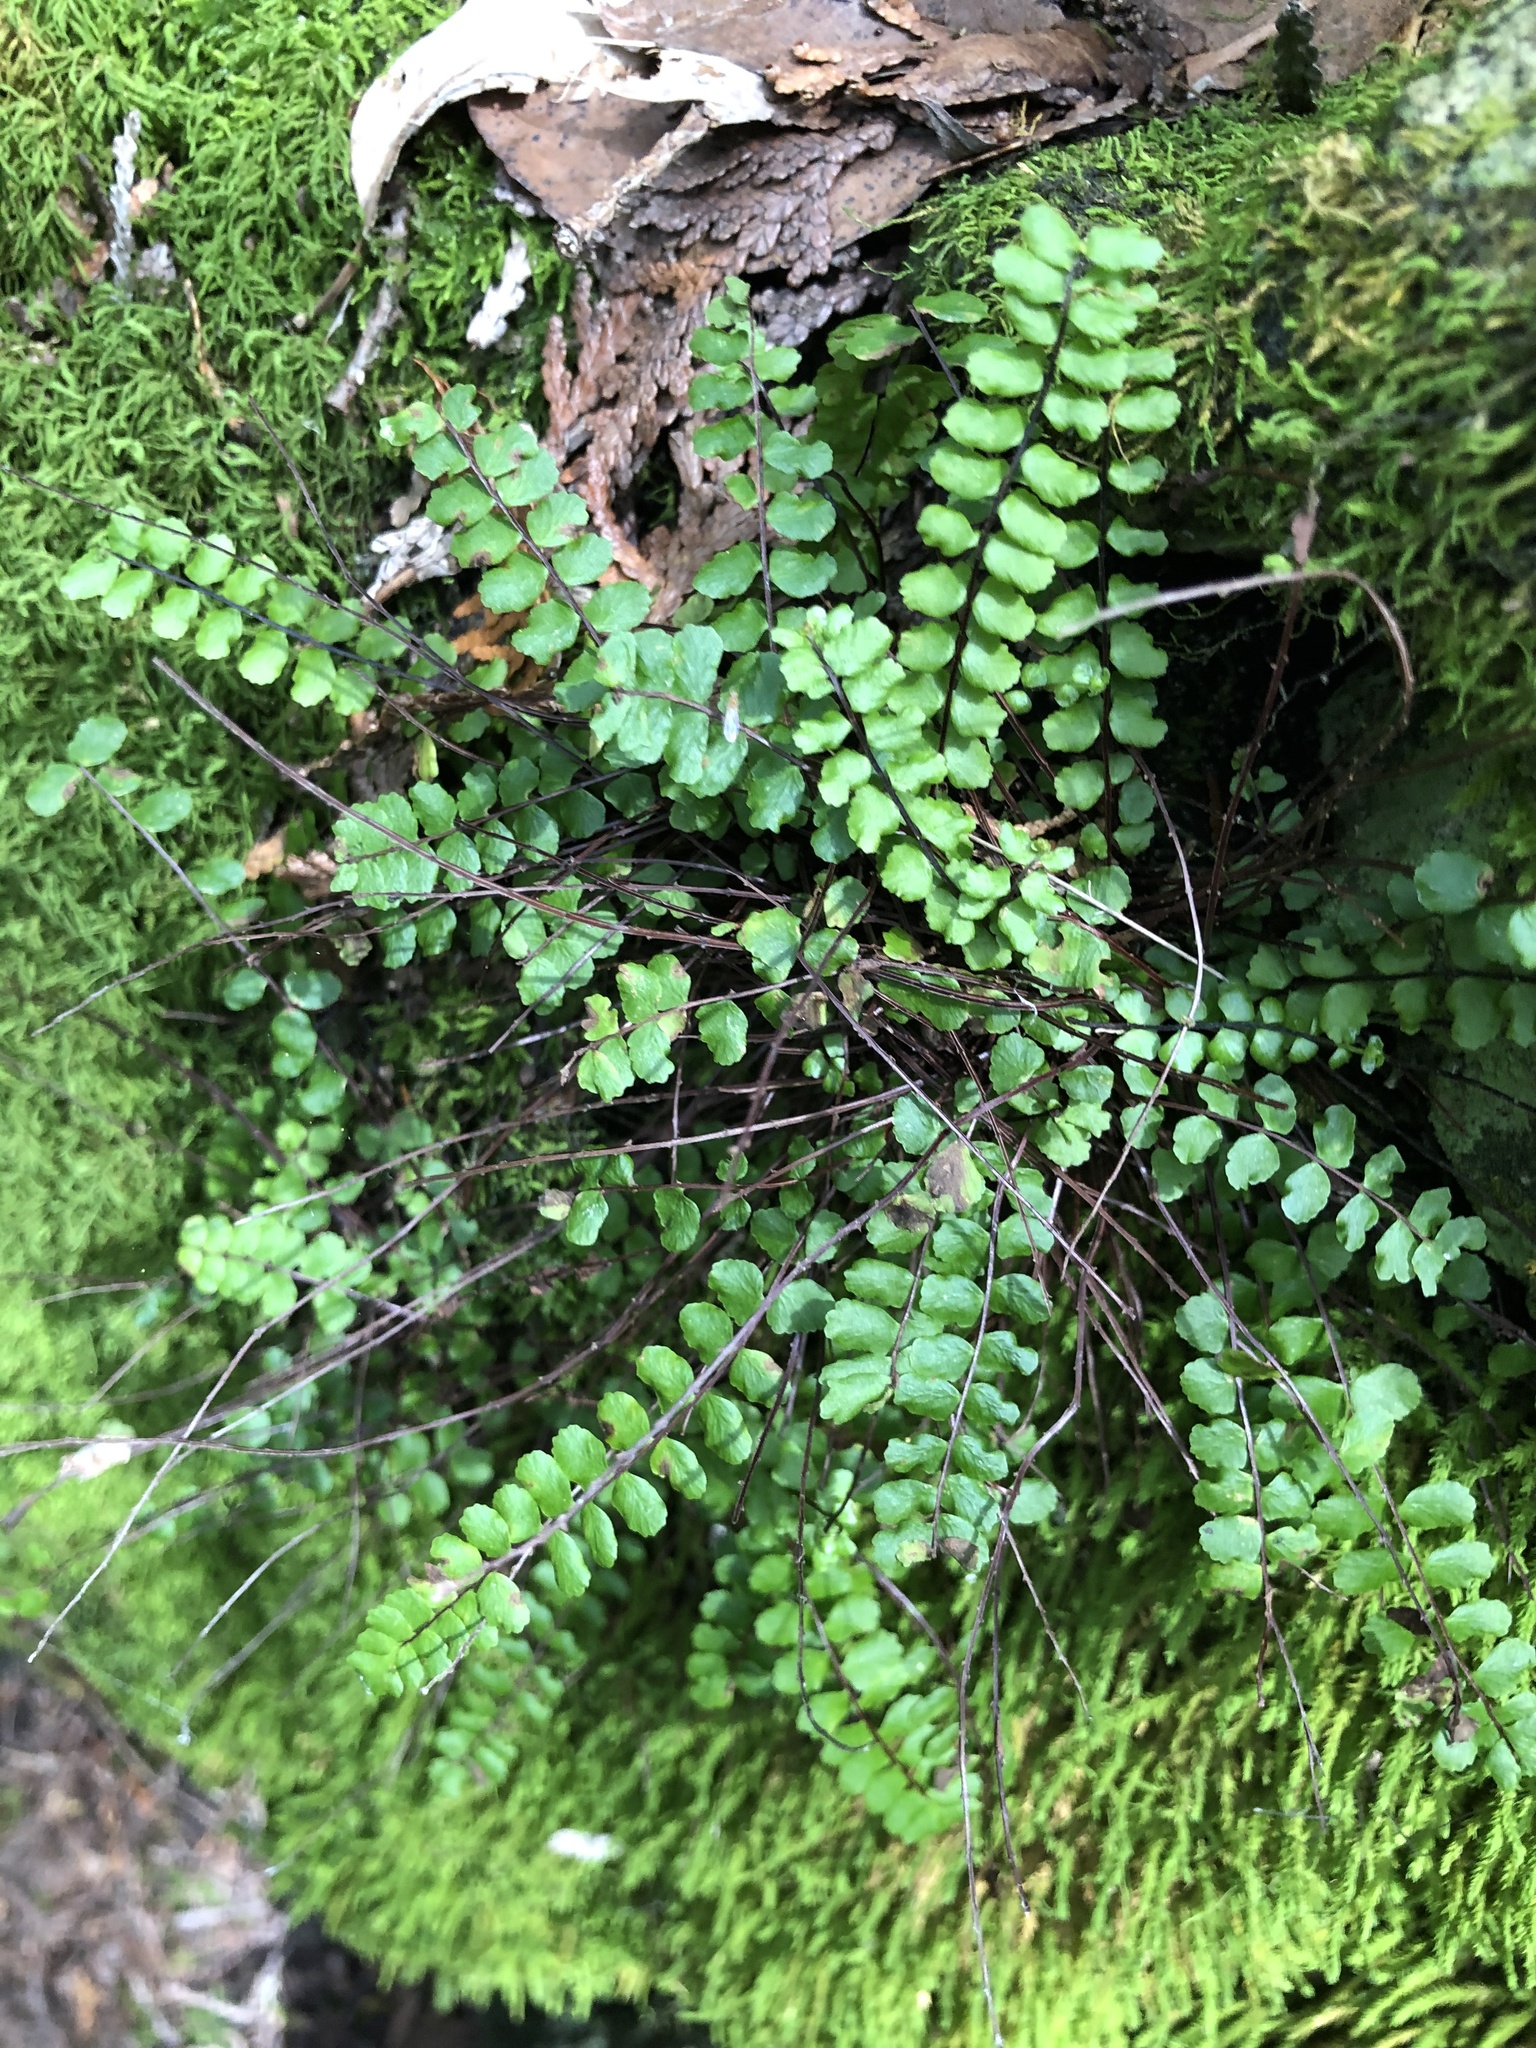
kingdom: Plantae
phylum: Tracheophyta
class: Polypodiopsida
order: Polypodiales
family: Aspleniaceae
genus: Asplenium
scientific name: Asplenium trichomanes
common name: Maidenhair spleenwort
